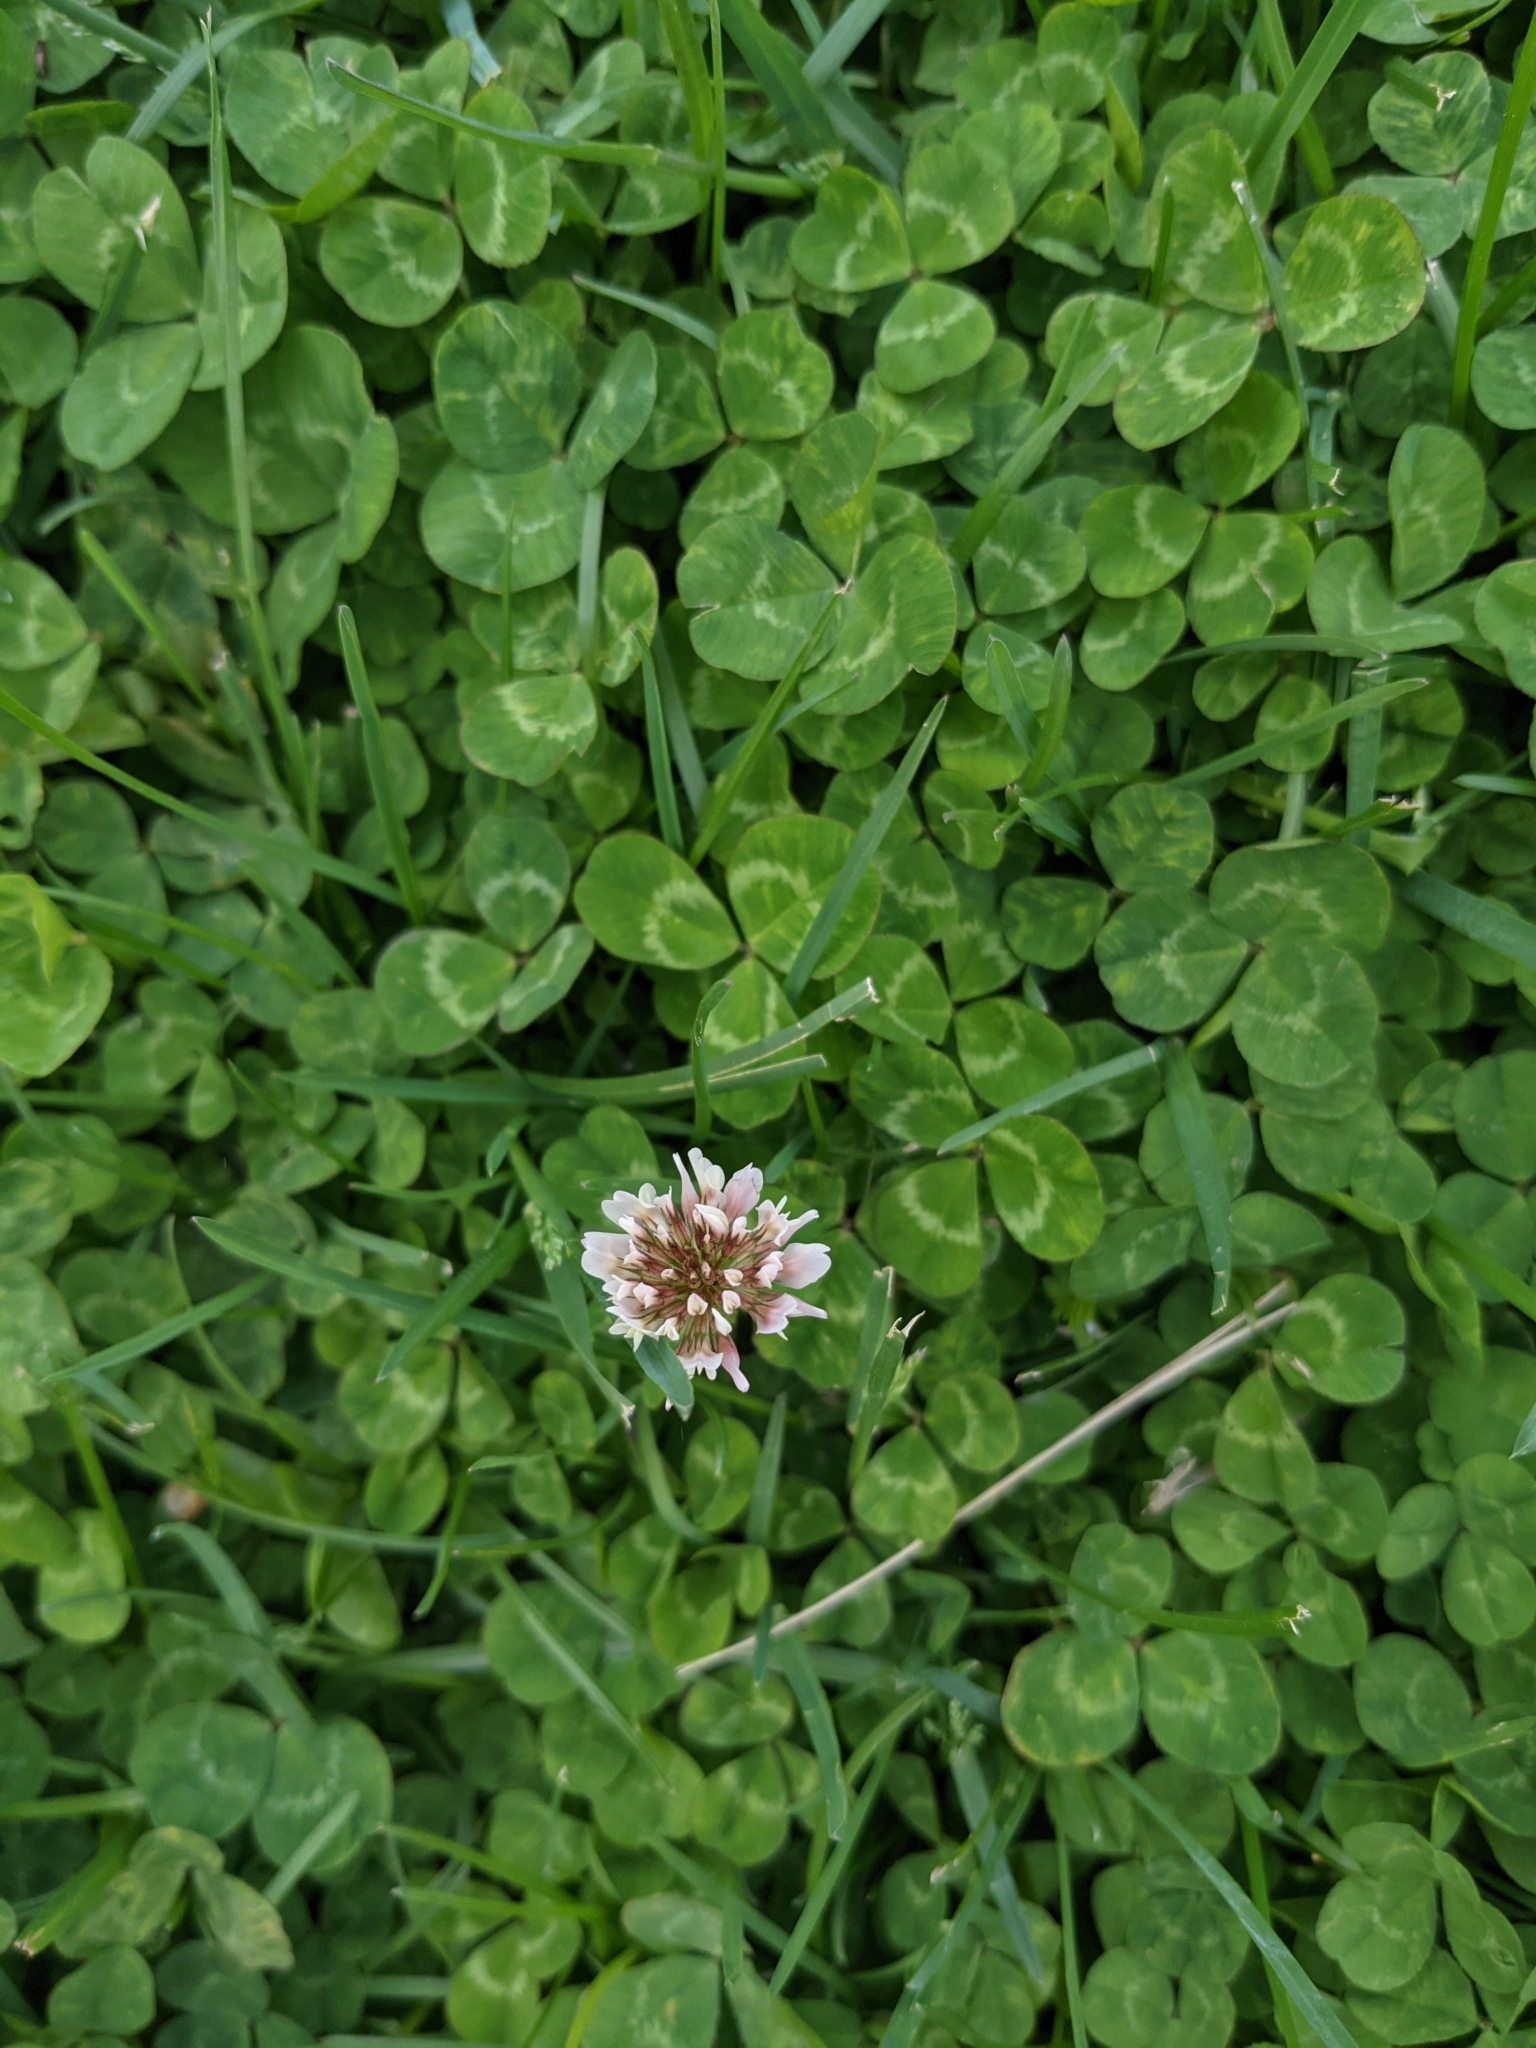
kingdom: Plantae
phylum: Tracheophyta
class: Magnoliopsida
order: Fabales
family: Fabaceae
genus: Trifolium
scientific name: Trifolium repens
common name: White clover
